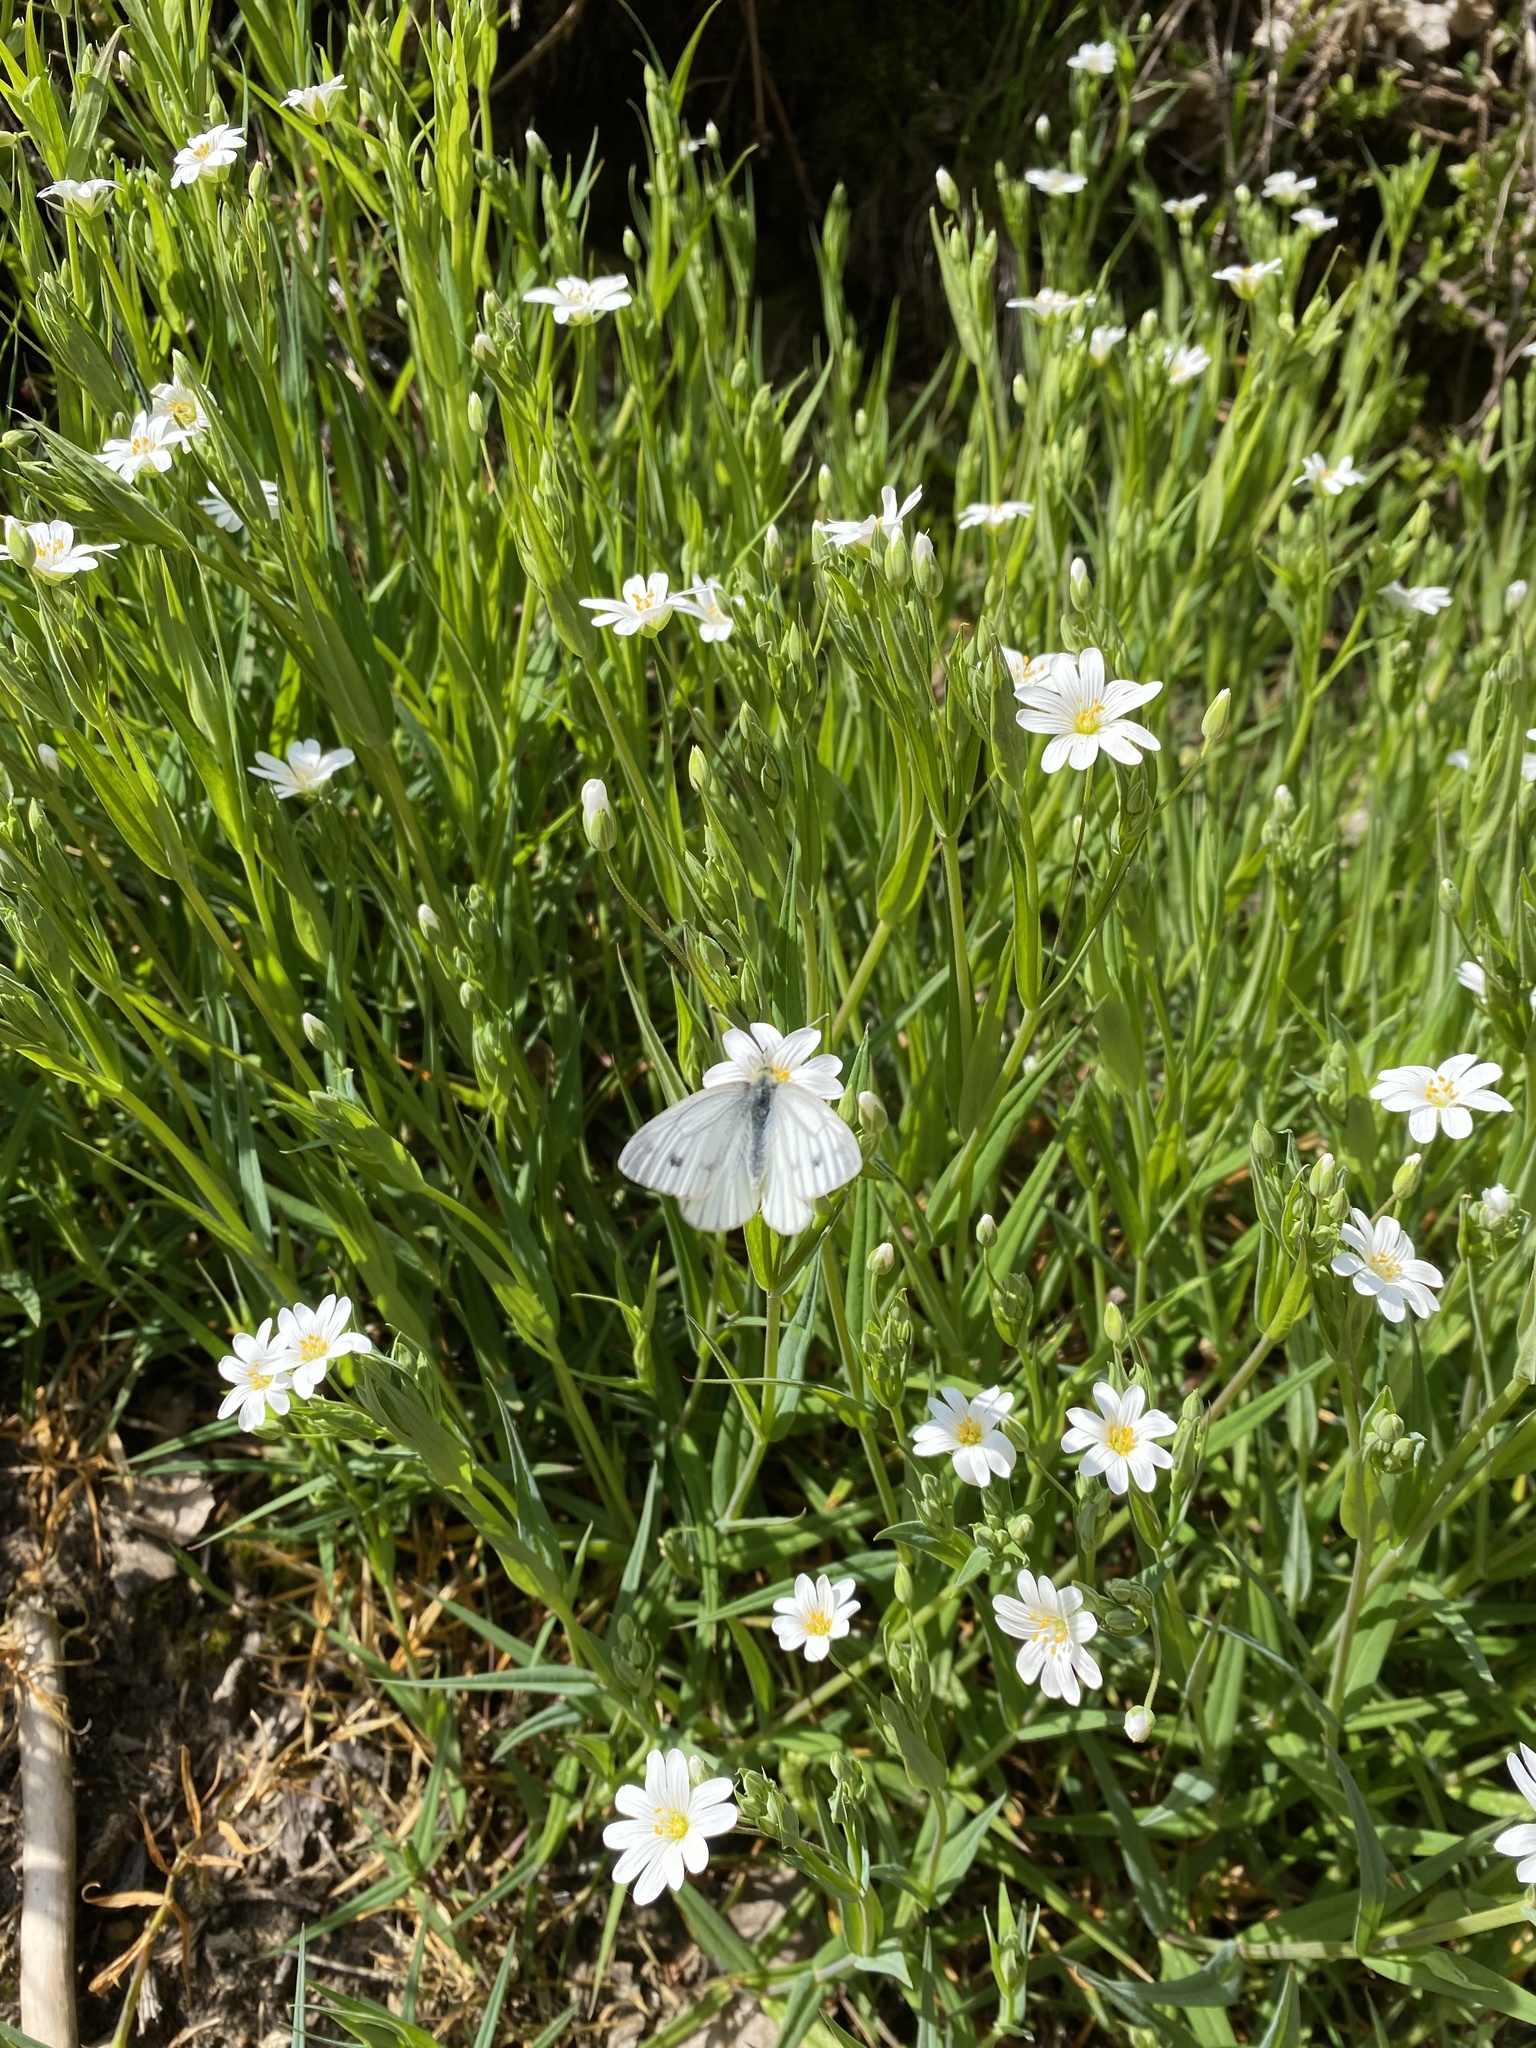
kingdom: Animalia
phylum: Arthropoda
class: Insecta
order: Lepidoptera
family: Pieridae
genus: Pieris
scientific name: Pieris napi
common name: Green-veined white
